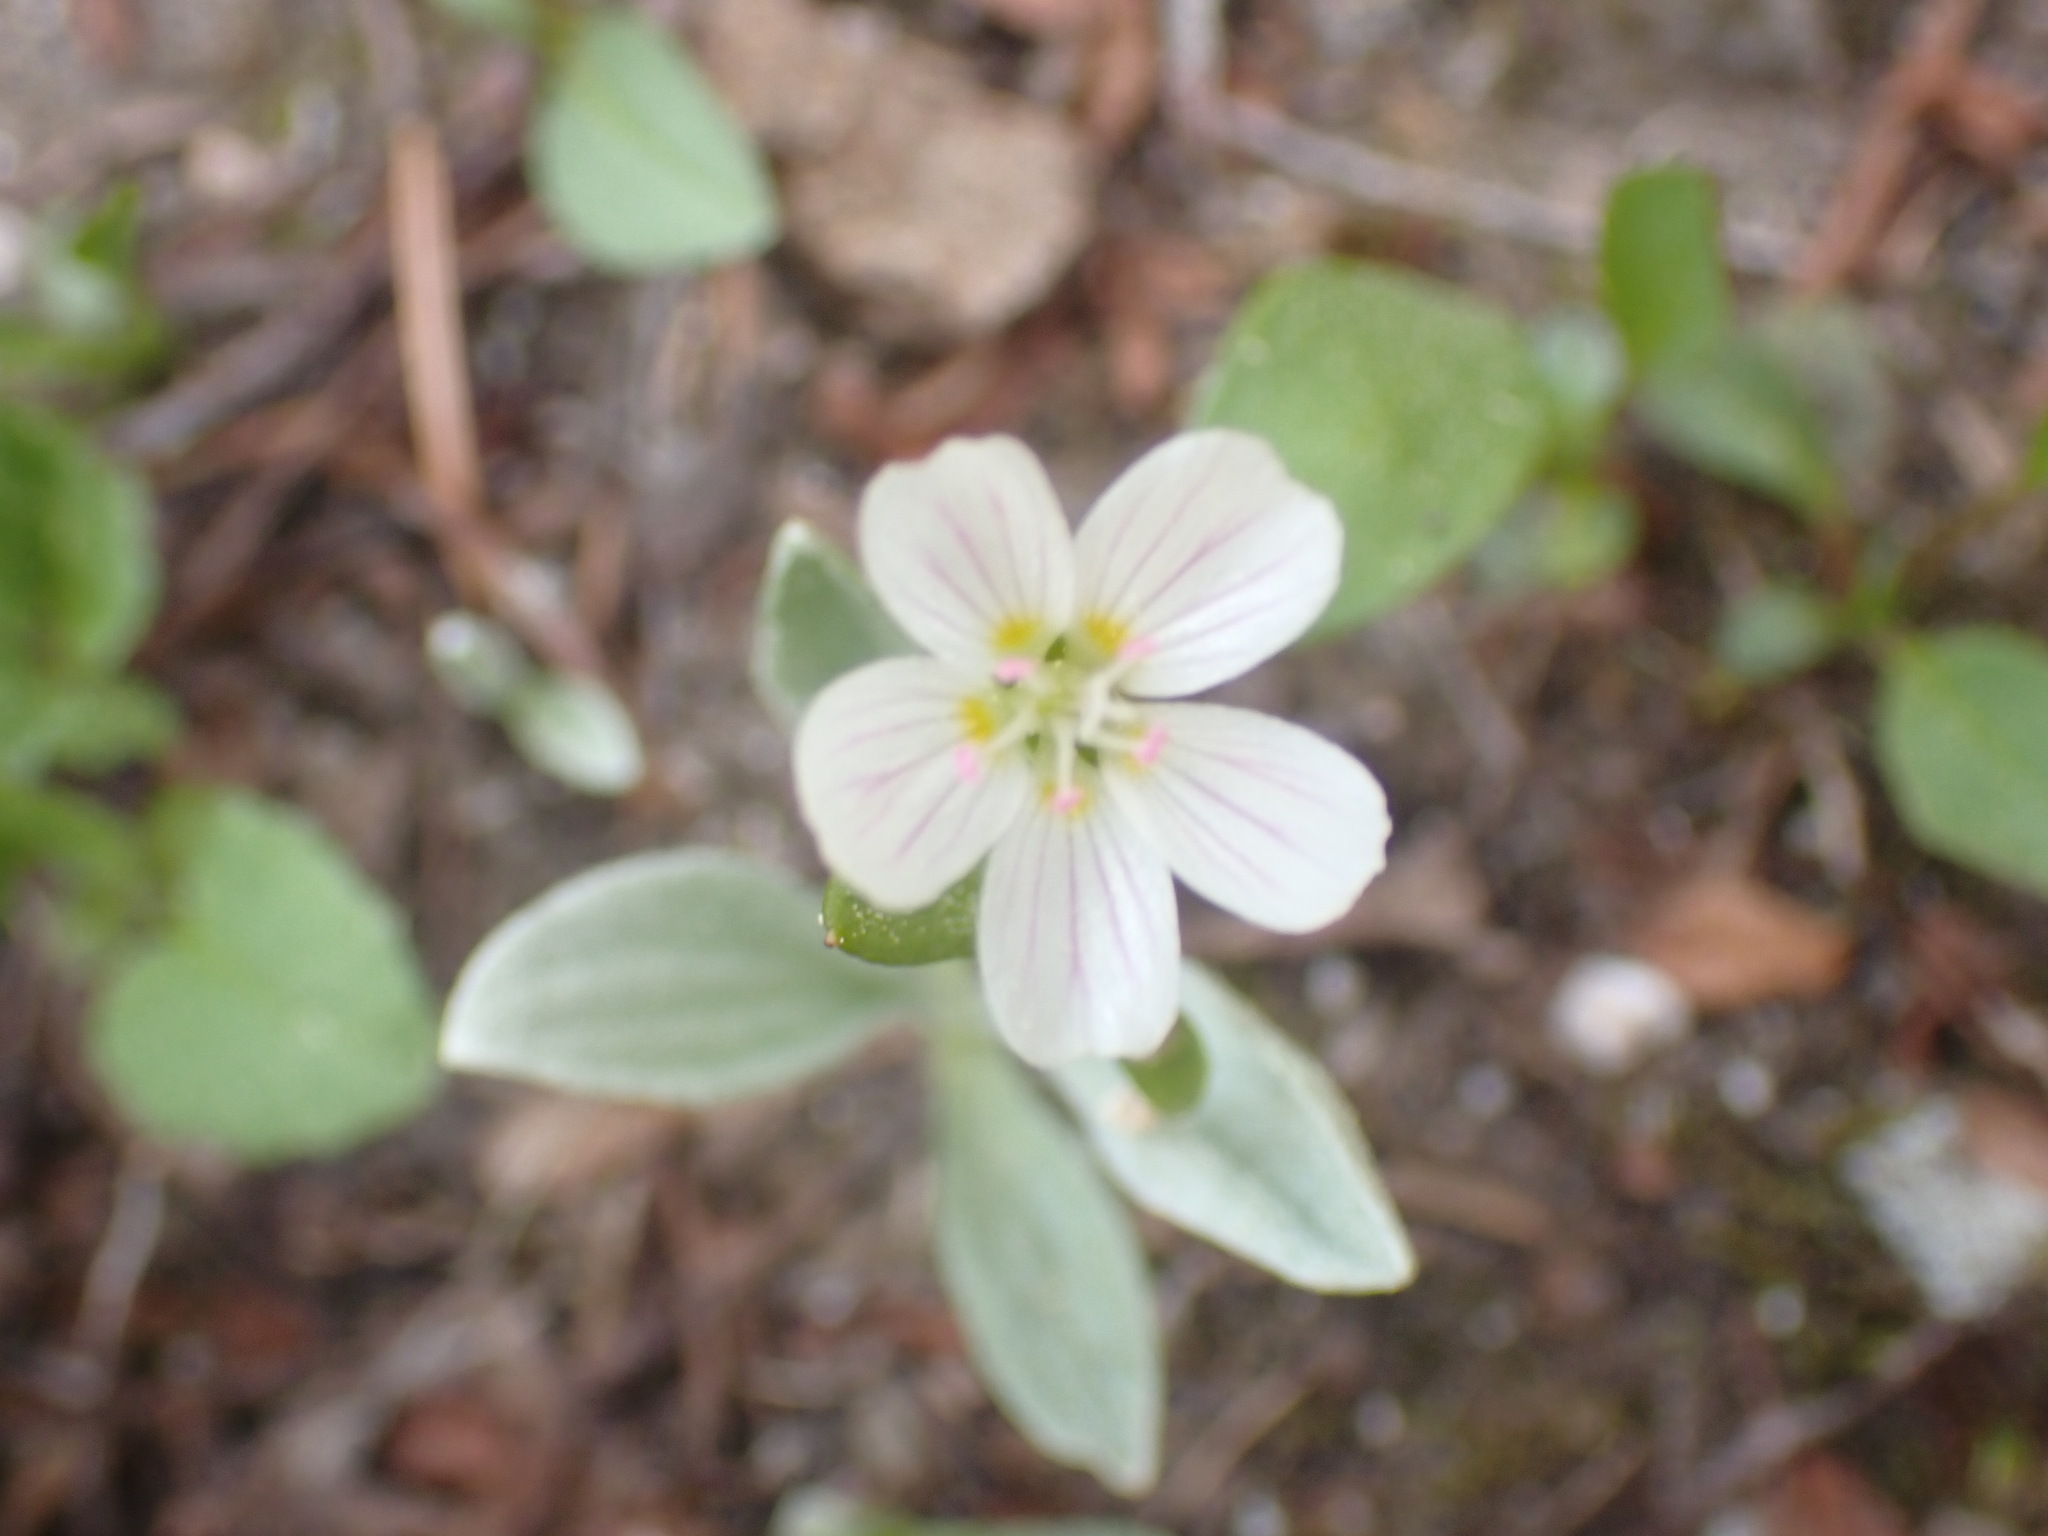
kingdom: Plantae
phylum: Tracheophyta
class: Magnoliopsida
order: Caryophyllales
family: Montiaceae
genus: Claytonia
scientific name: Claytonia lanceolata
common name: Western spring-beauty
